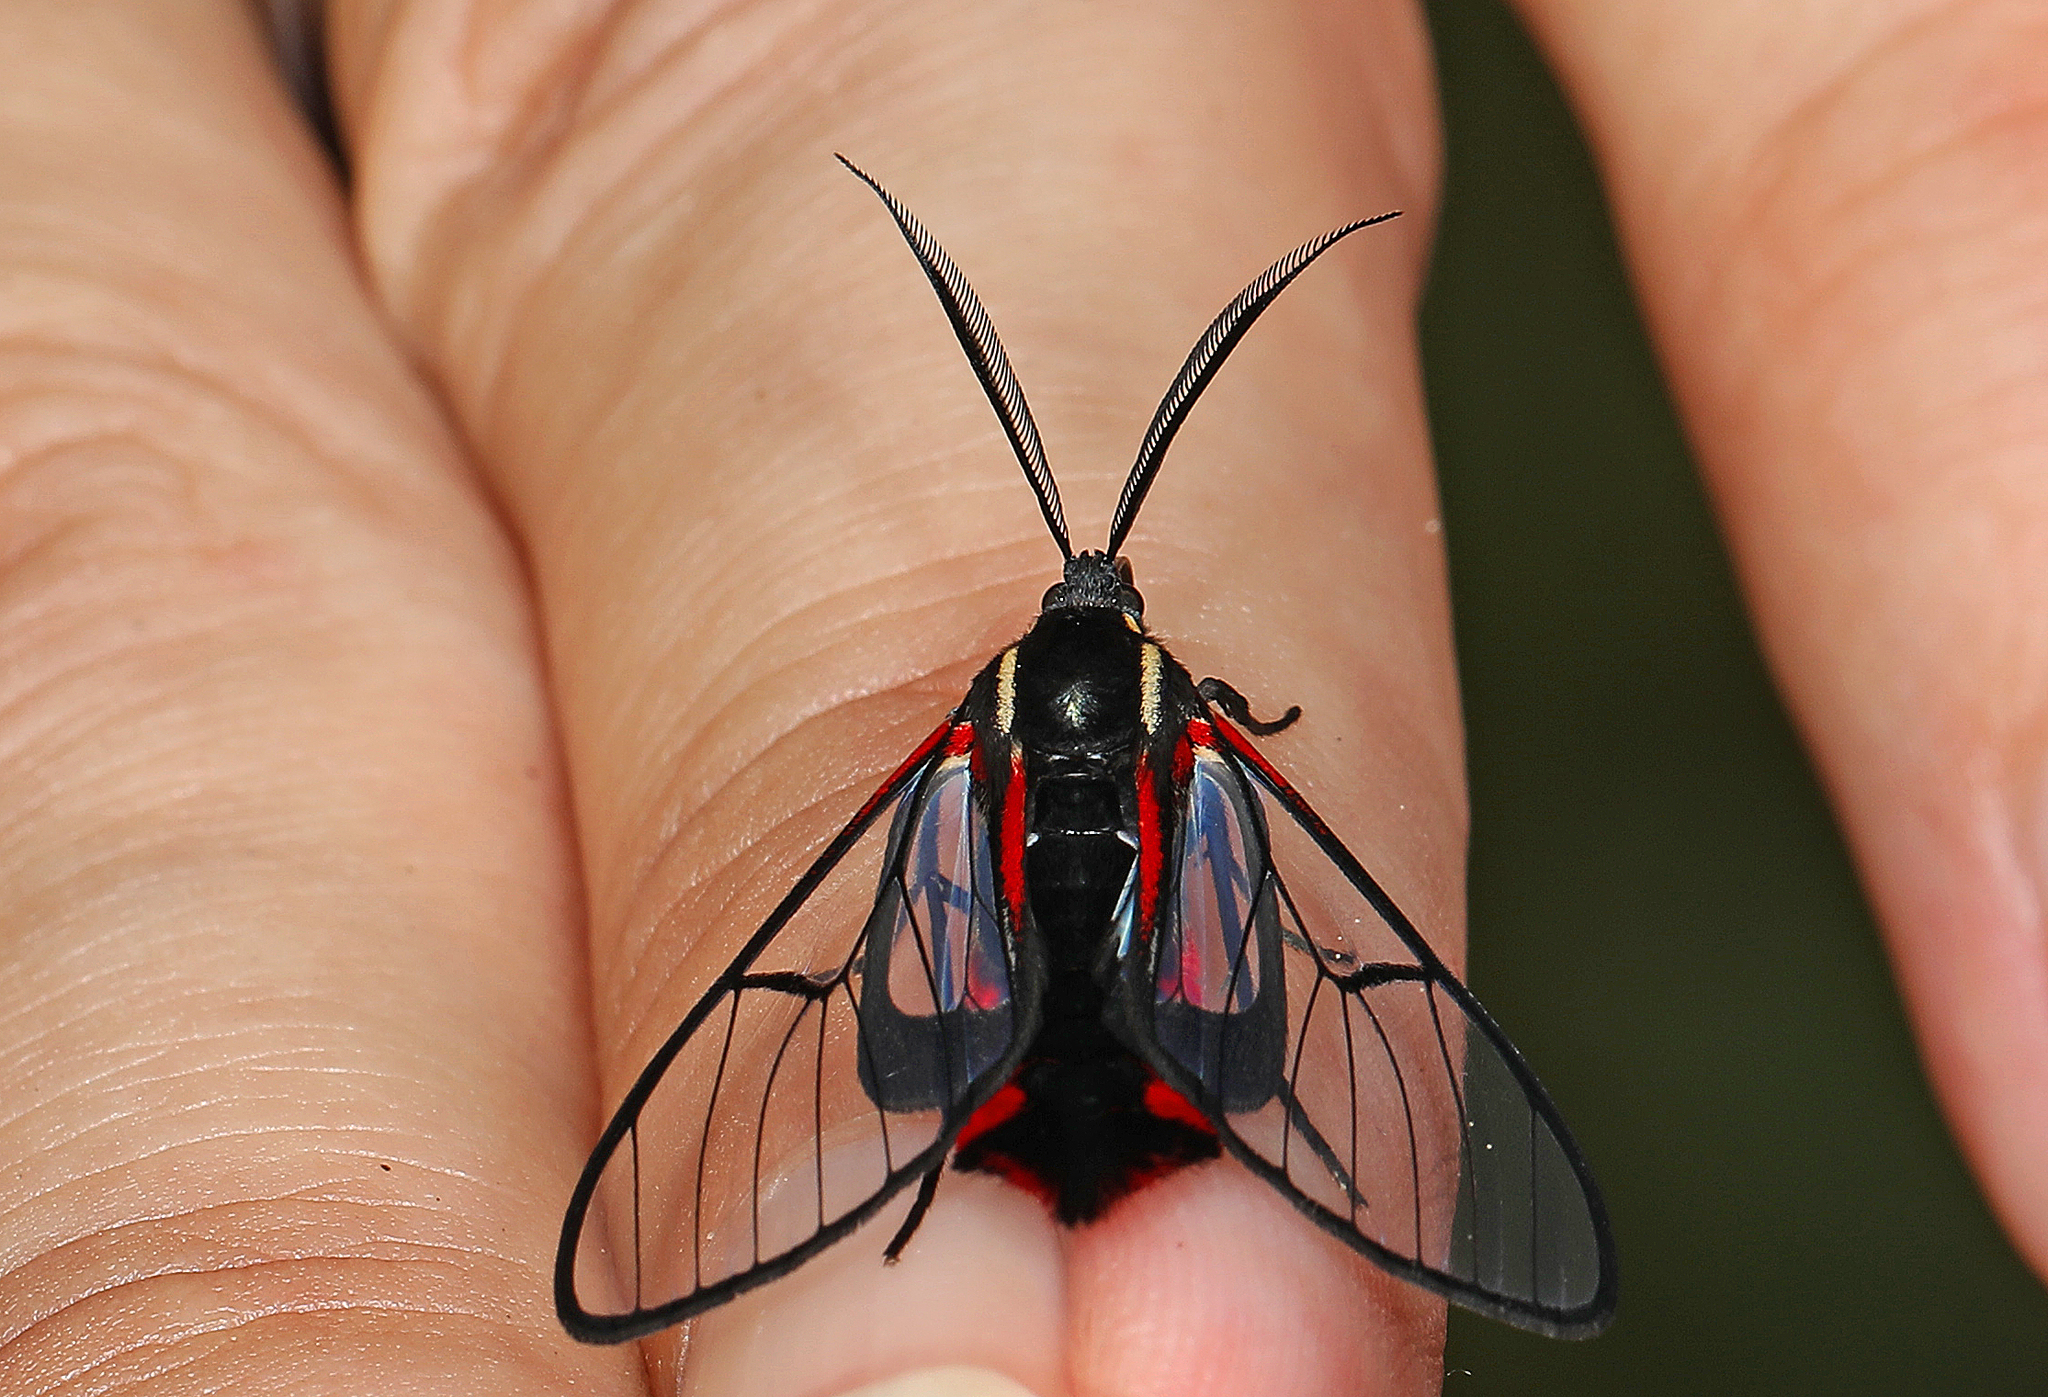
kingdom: Animalia
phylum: Arthropoda
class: Insecta
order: Lepidoptera
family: Erebidae
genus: Dinia
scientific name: Dinia mena
